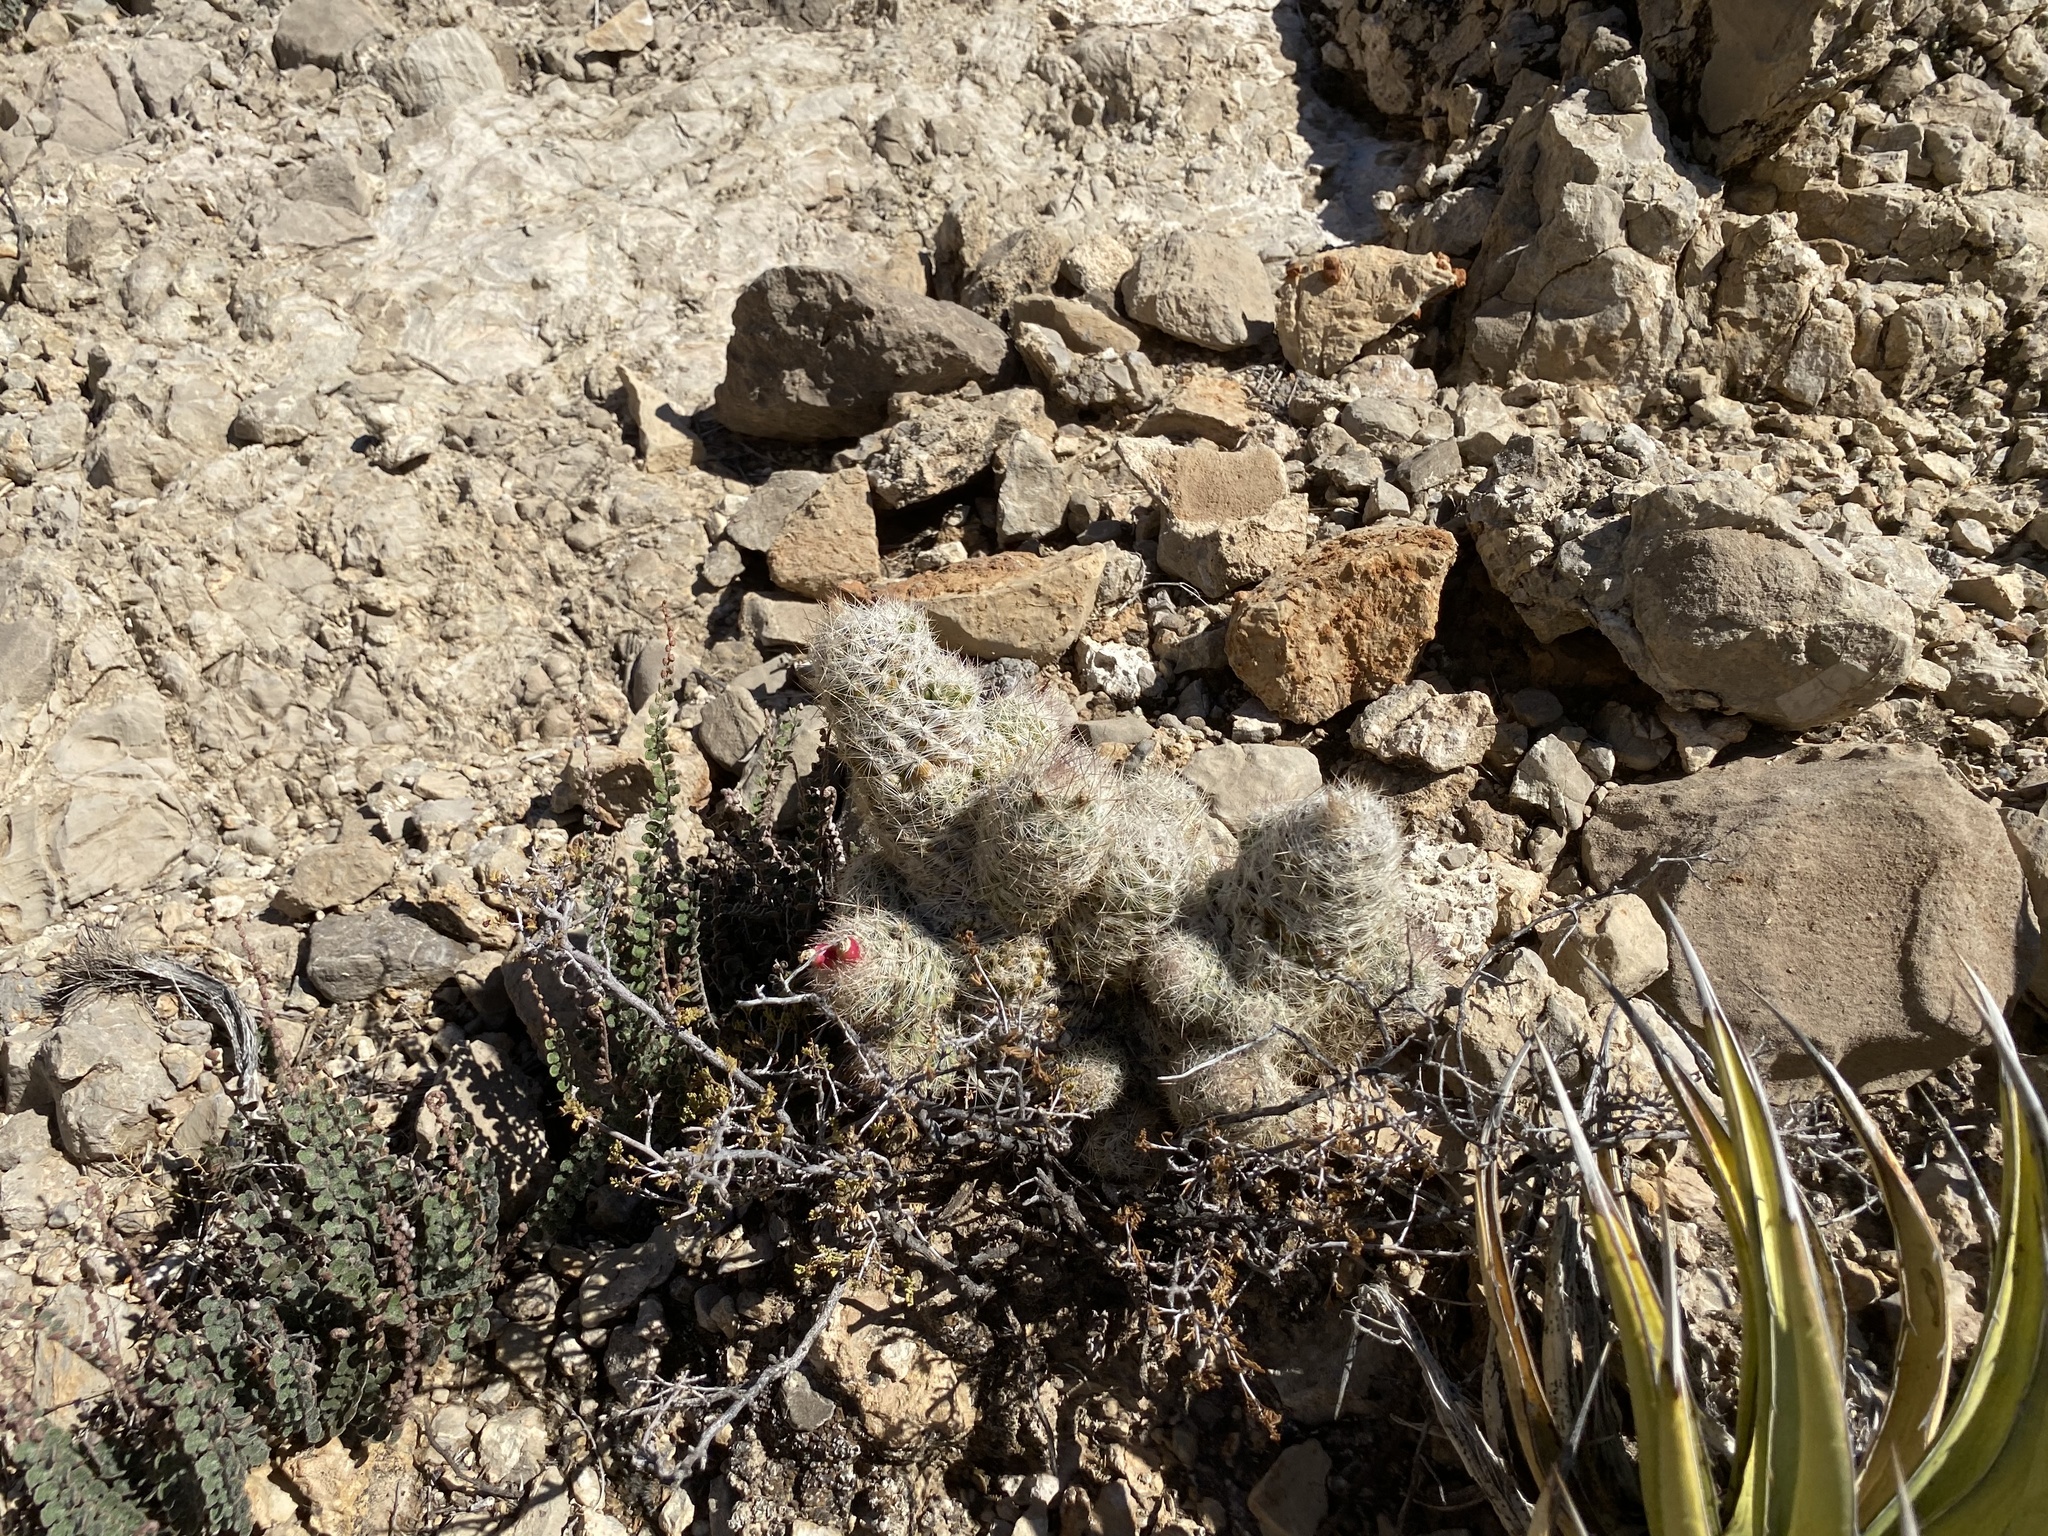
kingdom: Plantae
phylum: Tracheophyta
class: Magnoliopsida
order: Caryophyllales
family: Cactaceae
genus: Pelecyphora
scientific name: Pelecyphora tuberculosa
